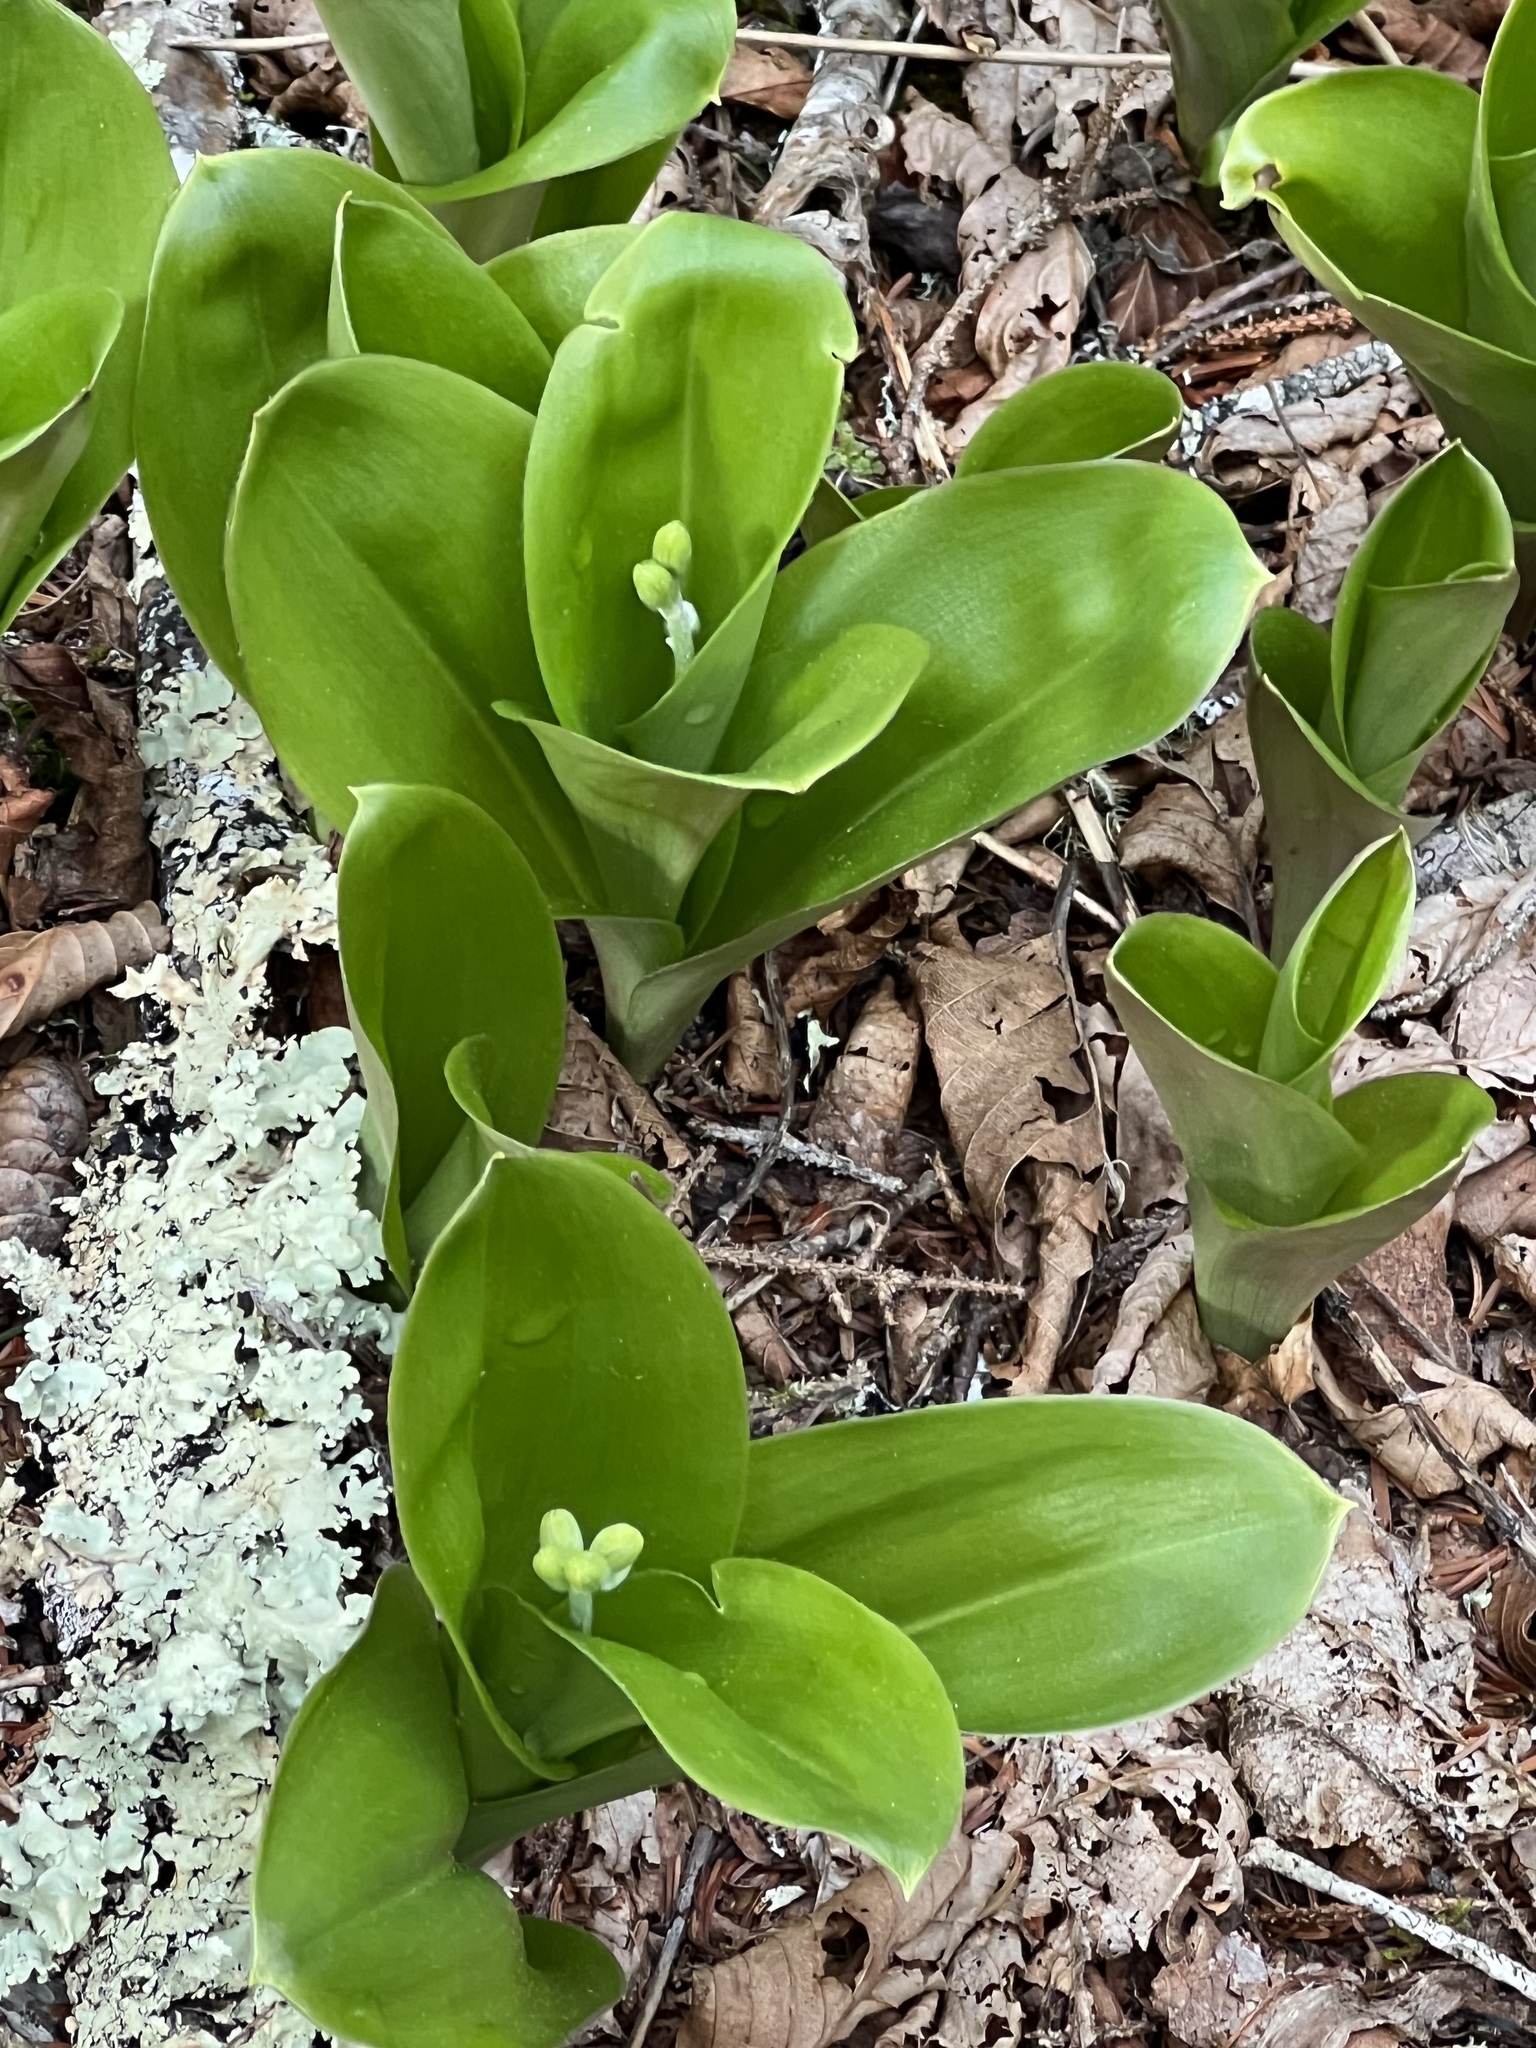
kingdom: Plantae
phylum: Tracheophyta
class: Liliopsida
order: Liliales
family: Liliaceae
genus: Clintonia
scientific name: Clintonia borealis
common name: Yellow clintonia
